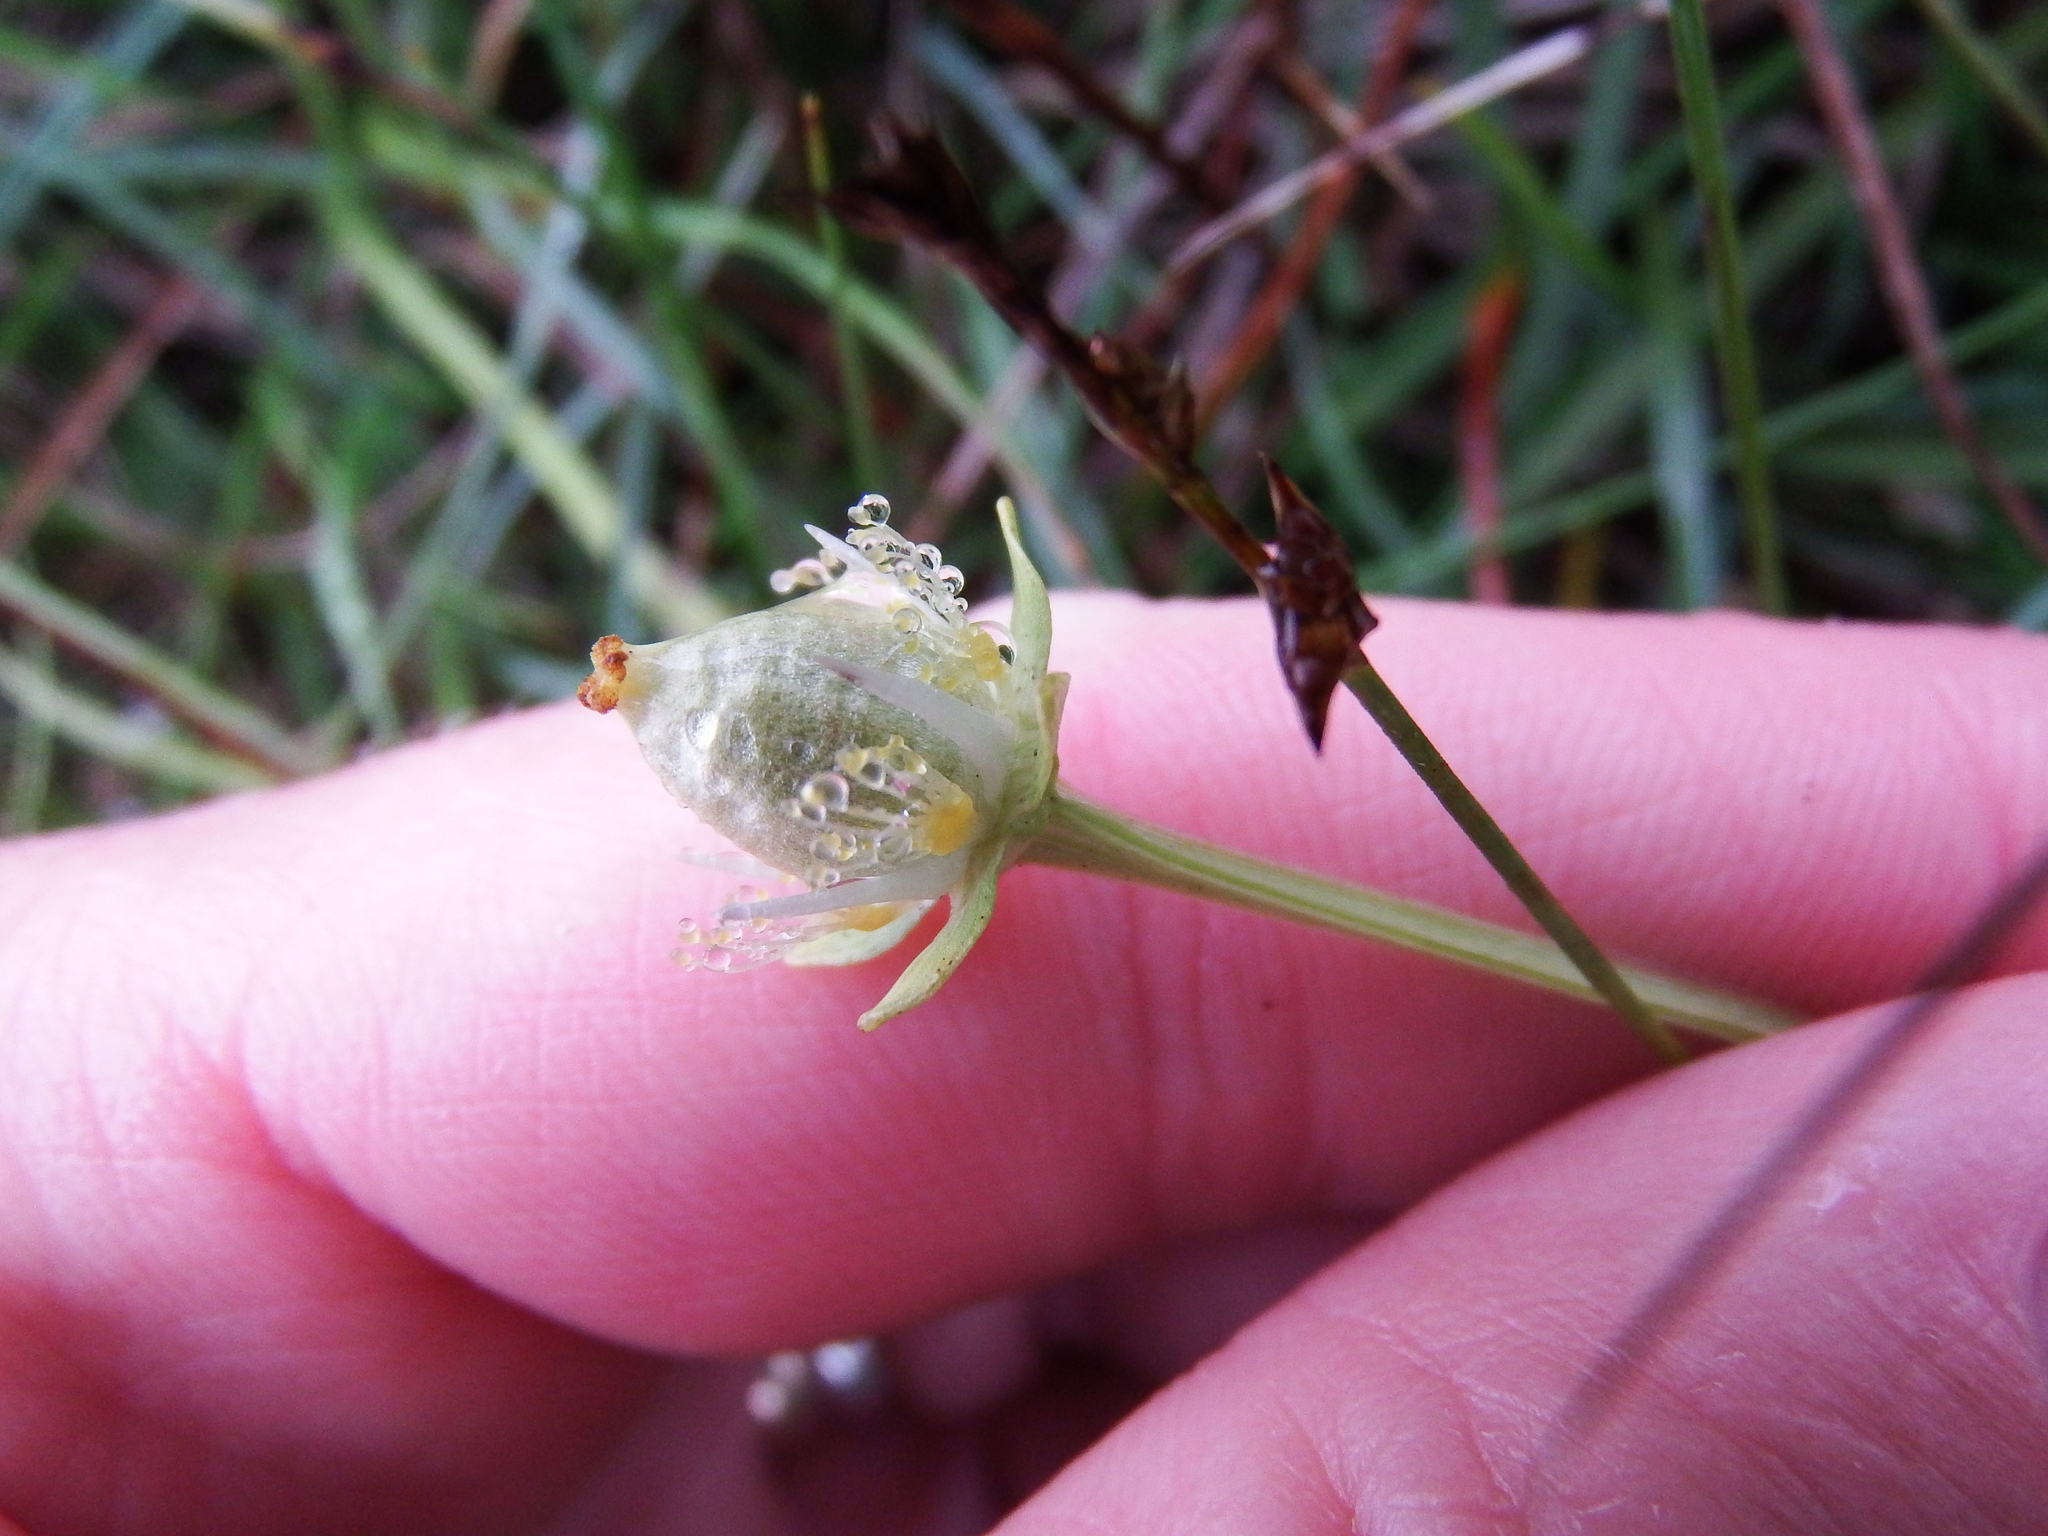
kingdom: Plantae
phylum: Tracheophyta
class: Magnoliopsida
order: Celastrales
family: Parnassiaceae
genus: Parnassia
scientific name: Parnassia palustris
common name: Grass-of-parnassus
